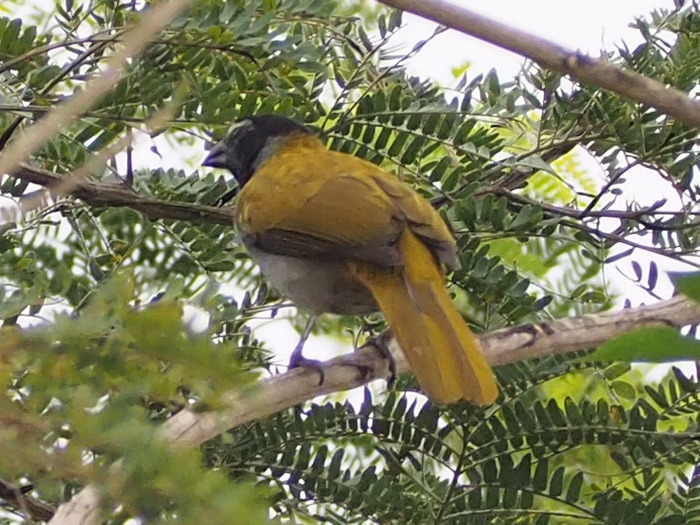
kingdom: Animalia
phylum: Chordata
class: Aves
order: Passeriformes
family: Thraupidae
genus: Saltator
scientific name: Saltator atriceps
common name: Black-headed saltator
